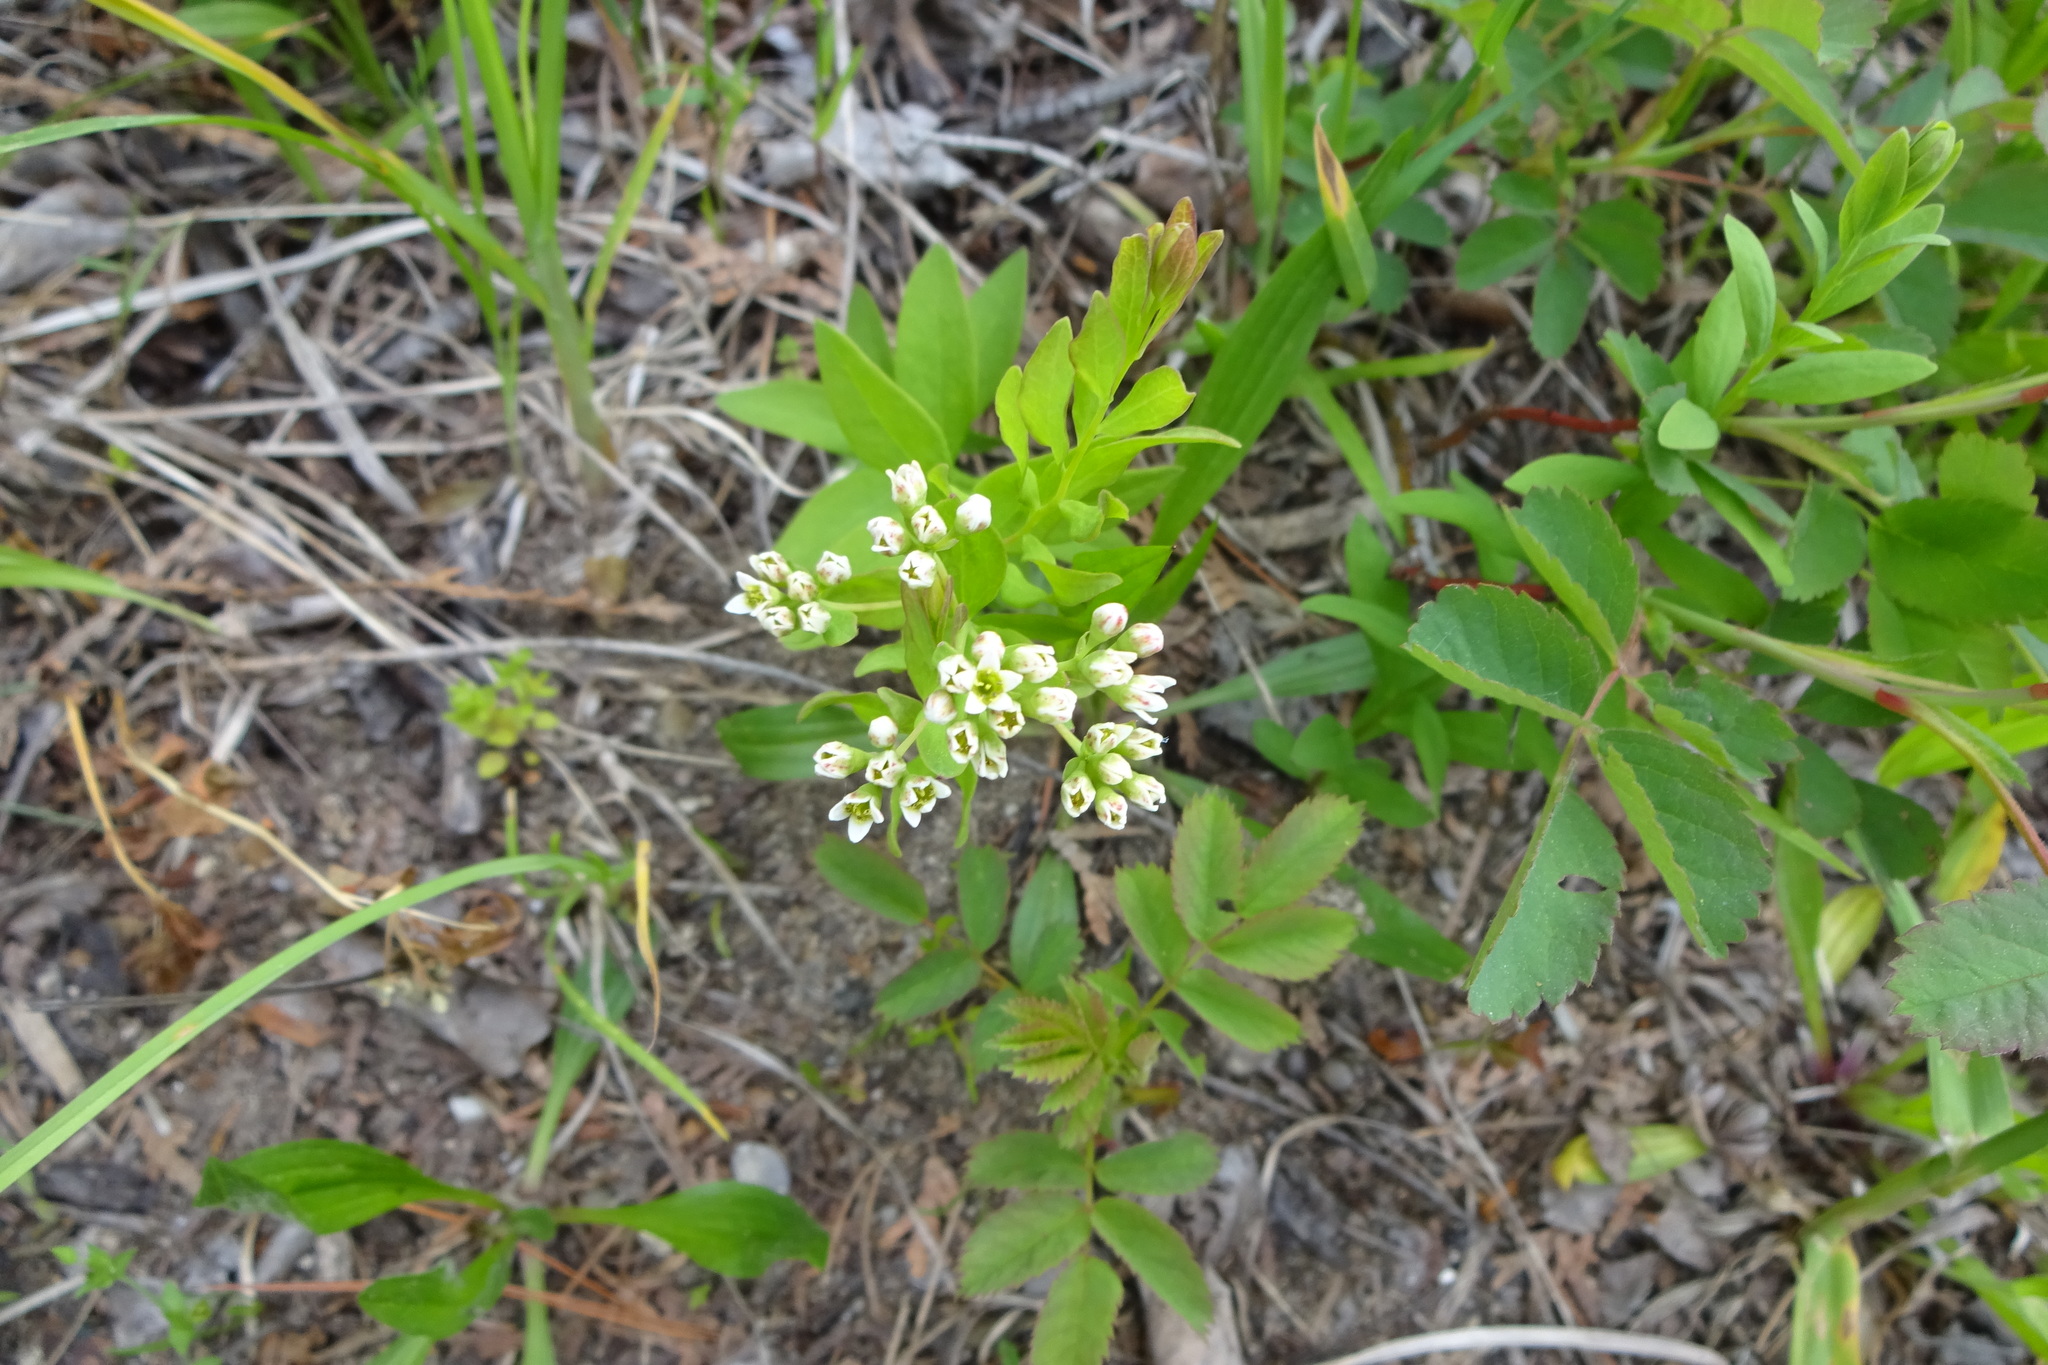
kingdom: Plantae
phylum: Tracheophyta
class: Magnoliopsida
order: Santalales
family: Comandraceae
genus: Comandra
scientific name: Comandra umbellata
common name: Bastard toadflax
